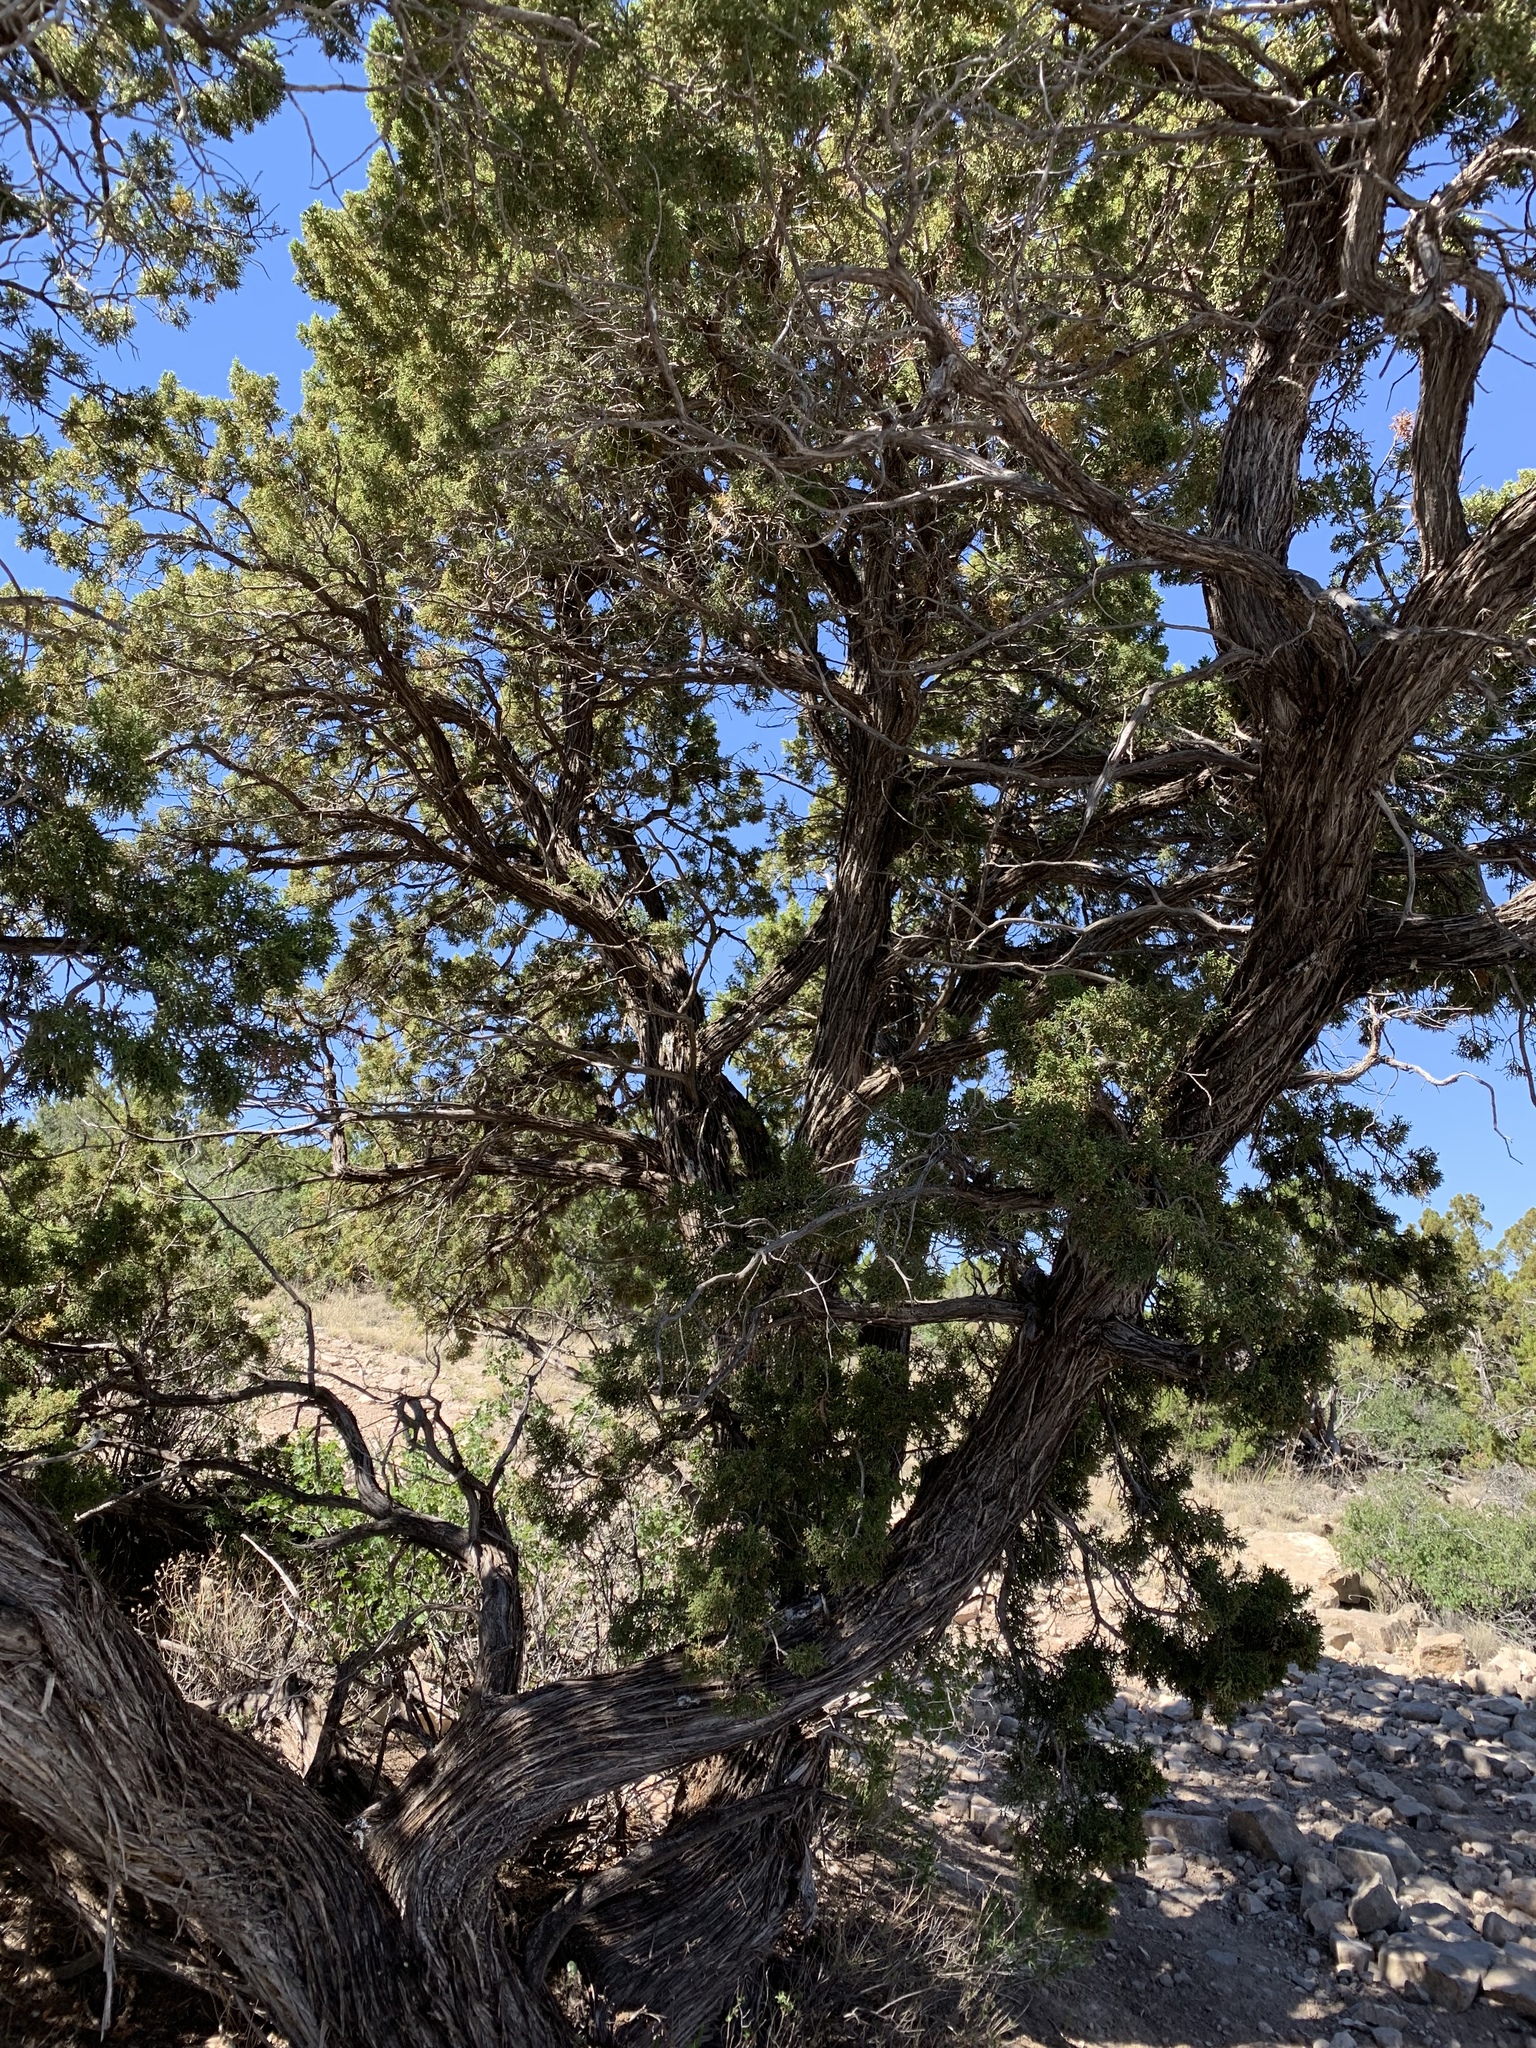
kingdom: Plantae
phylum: Tracheophyta
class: Pinopsida
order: Pinales
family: Cupressaceae
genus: Juniperus
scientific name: Juniperus monosperma
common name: One-seed juniper
